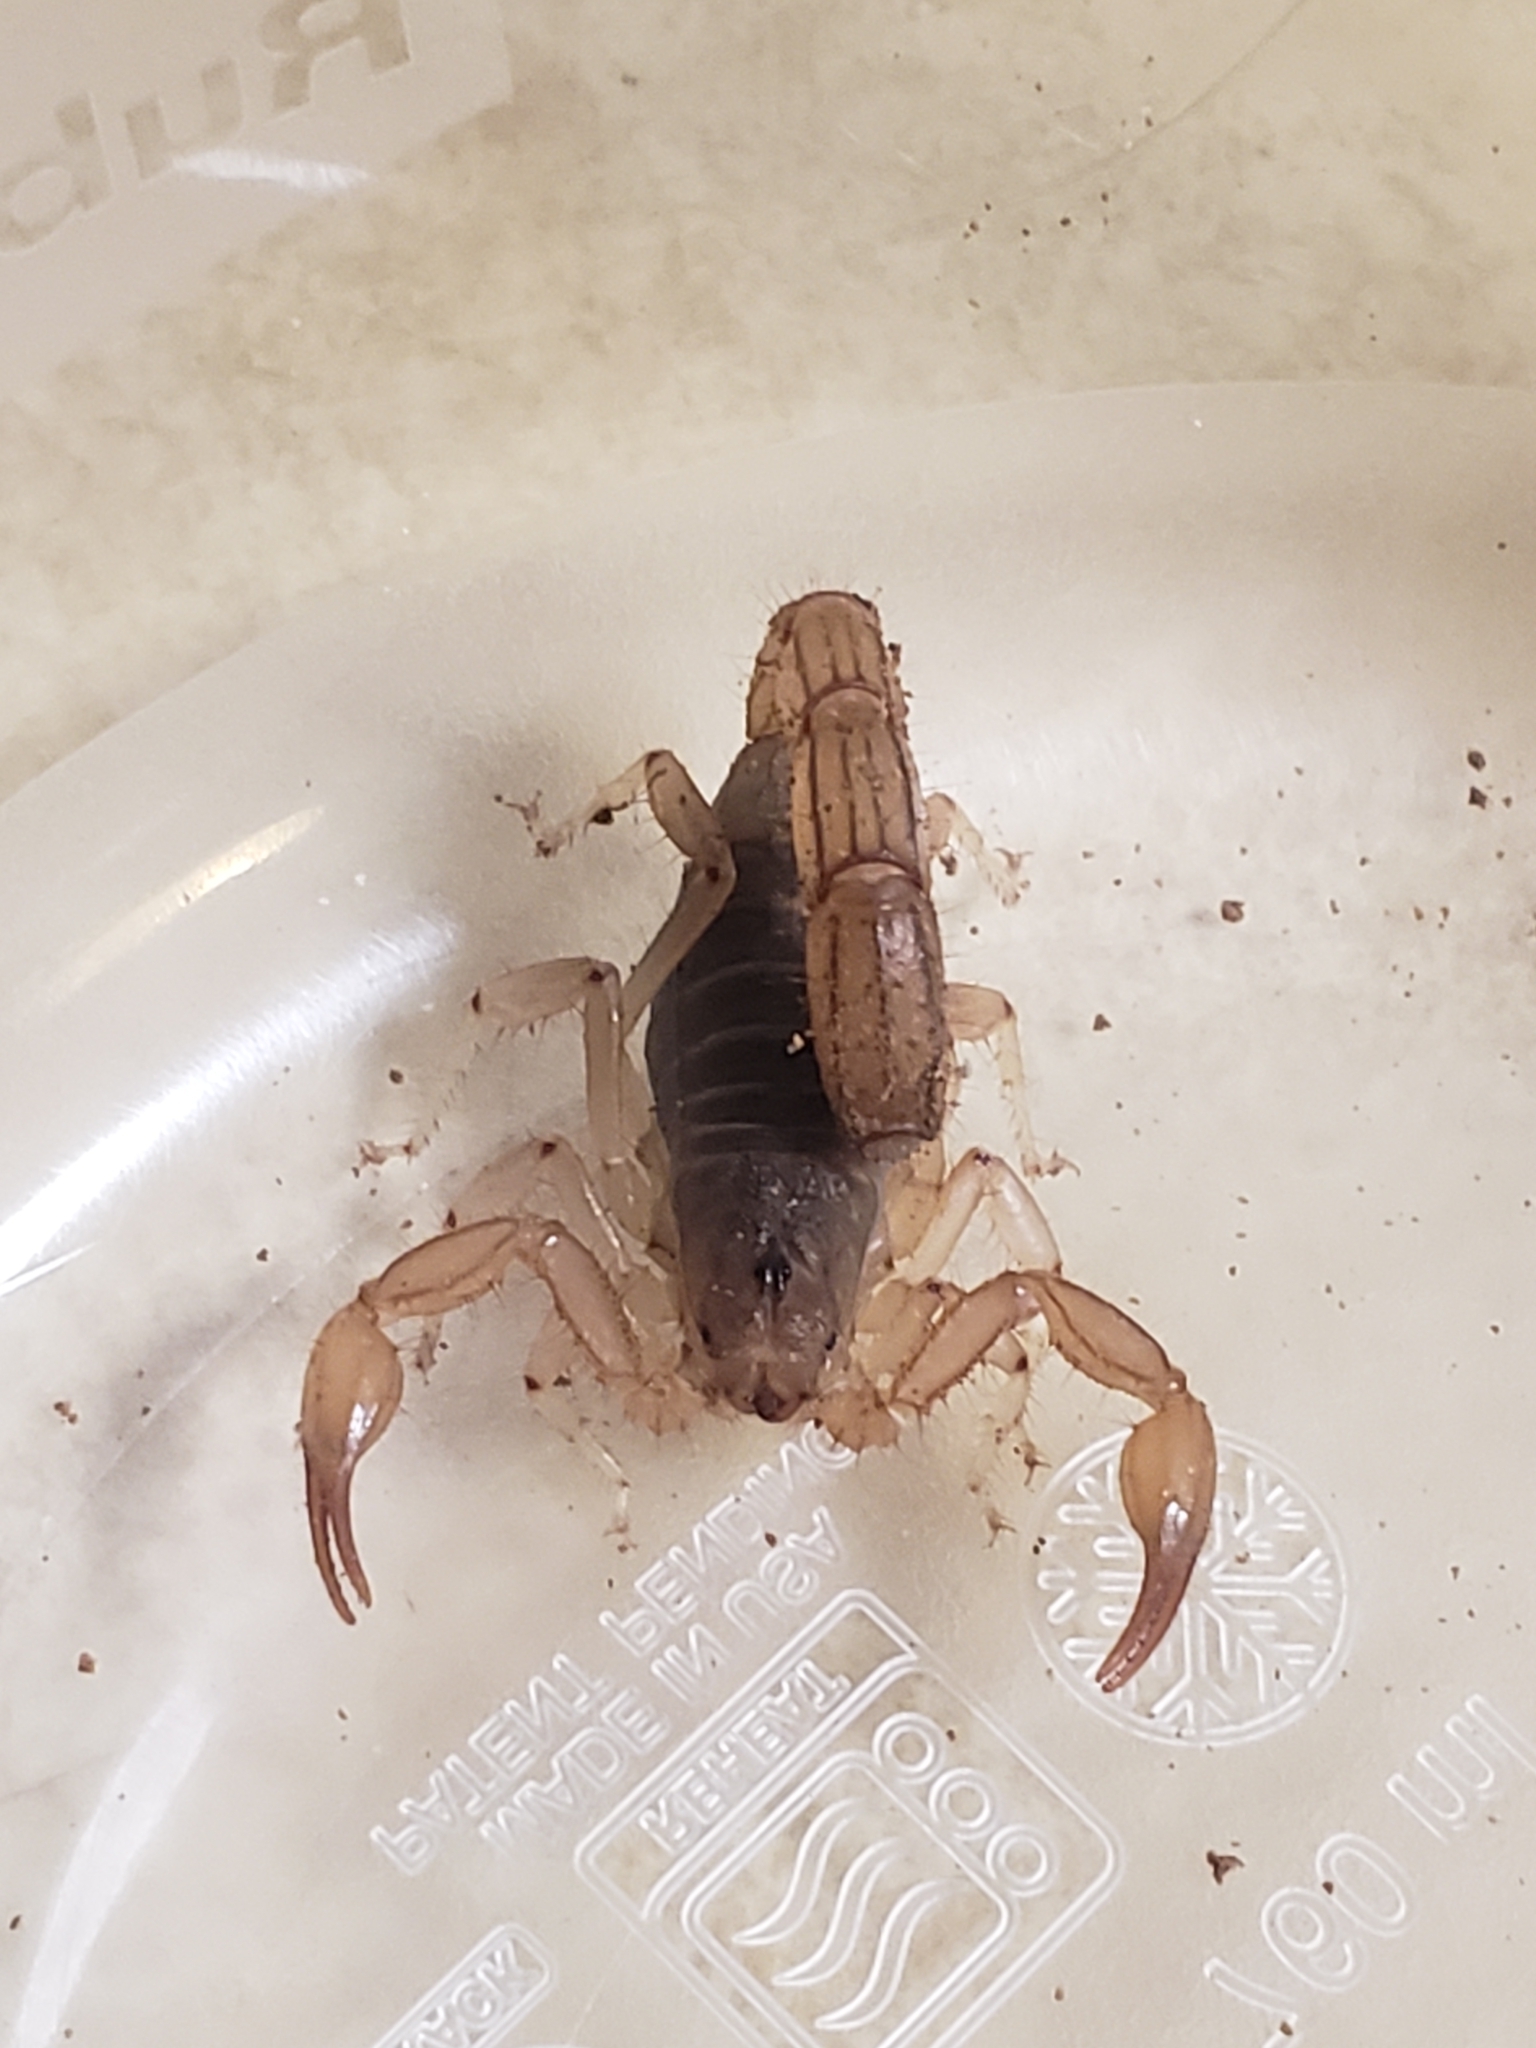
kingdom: Animalia
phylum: Arthropoda
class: Arachnida
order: Scorpiones
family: Vaejovidae
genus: Paravaejovis
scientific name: Paravaejovis spinigerus
